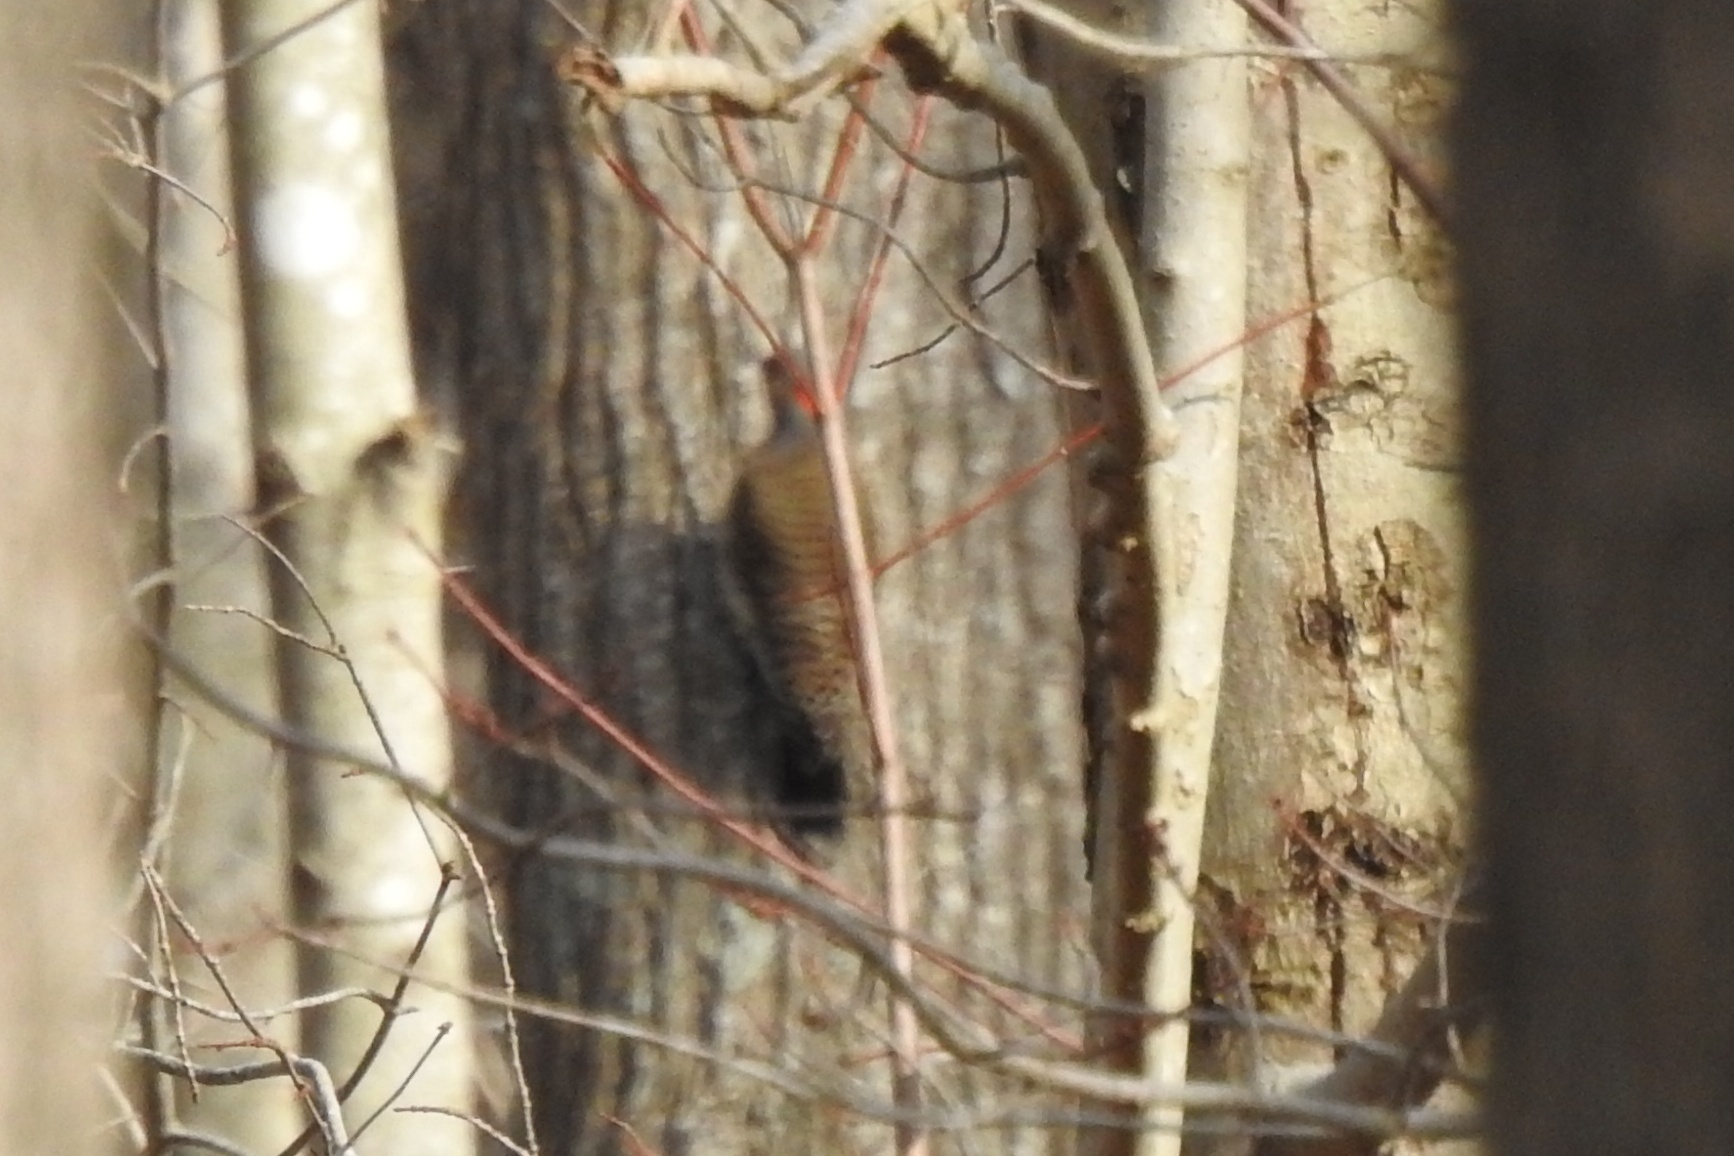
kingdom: Animalia
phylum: Chordata
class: Aves
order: Piciformes
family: Picidae
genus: Colaptes
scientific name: Colaptes auratus
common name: Northern flicker
